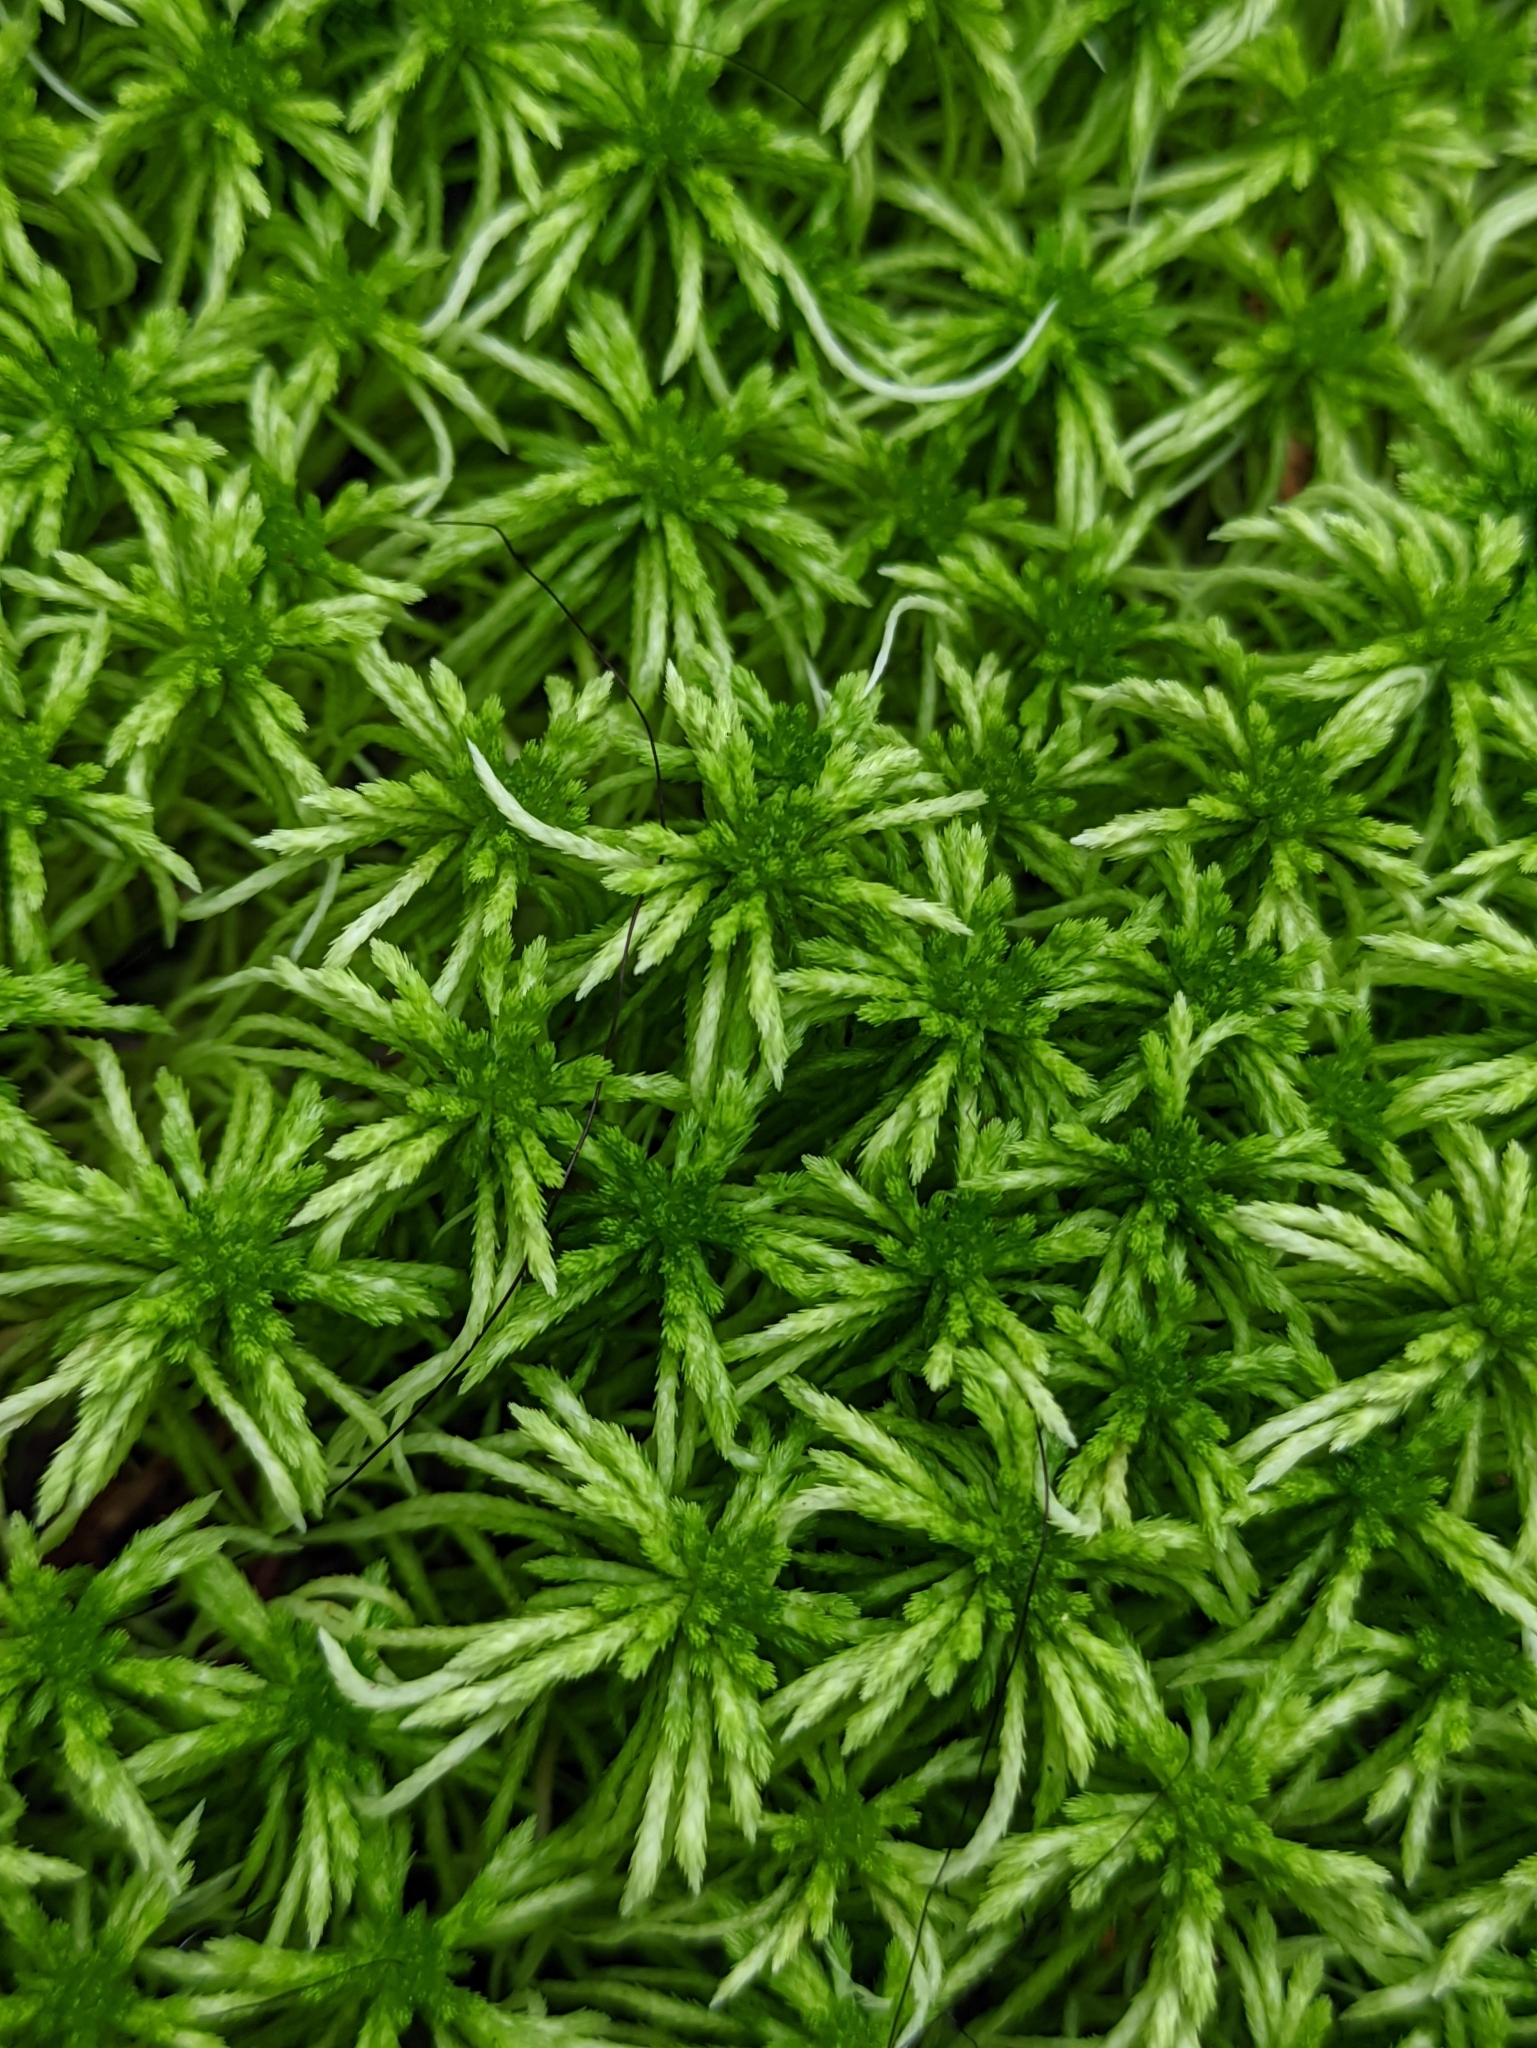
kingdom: Plantae
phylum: Bryophyta
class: Sphagnopsida
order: Sphagnales
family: Sphagnaceae
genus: Sphagnum
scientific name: Sphagnum girgensohnii
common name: Girgensohn's peat moss
